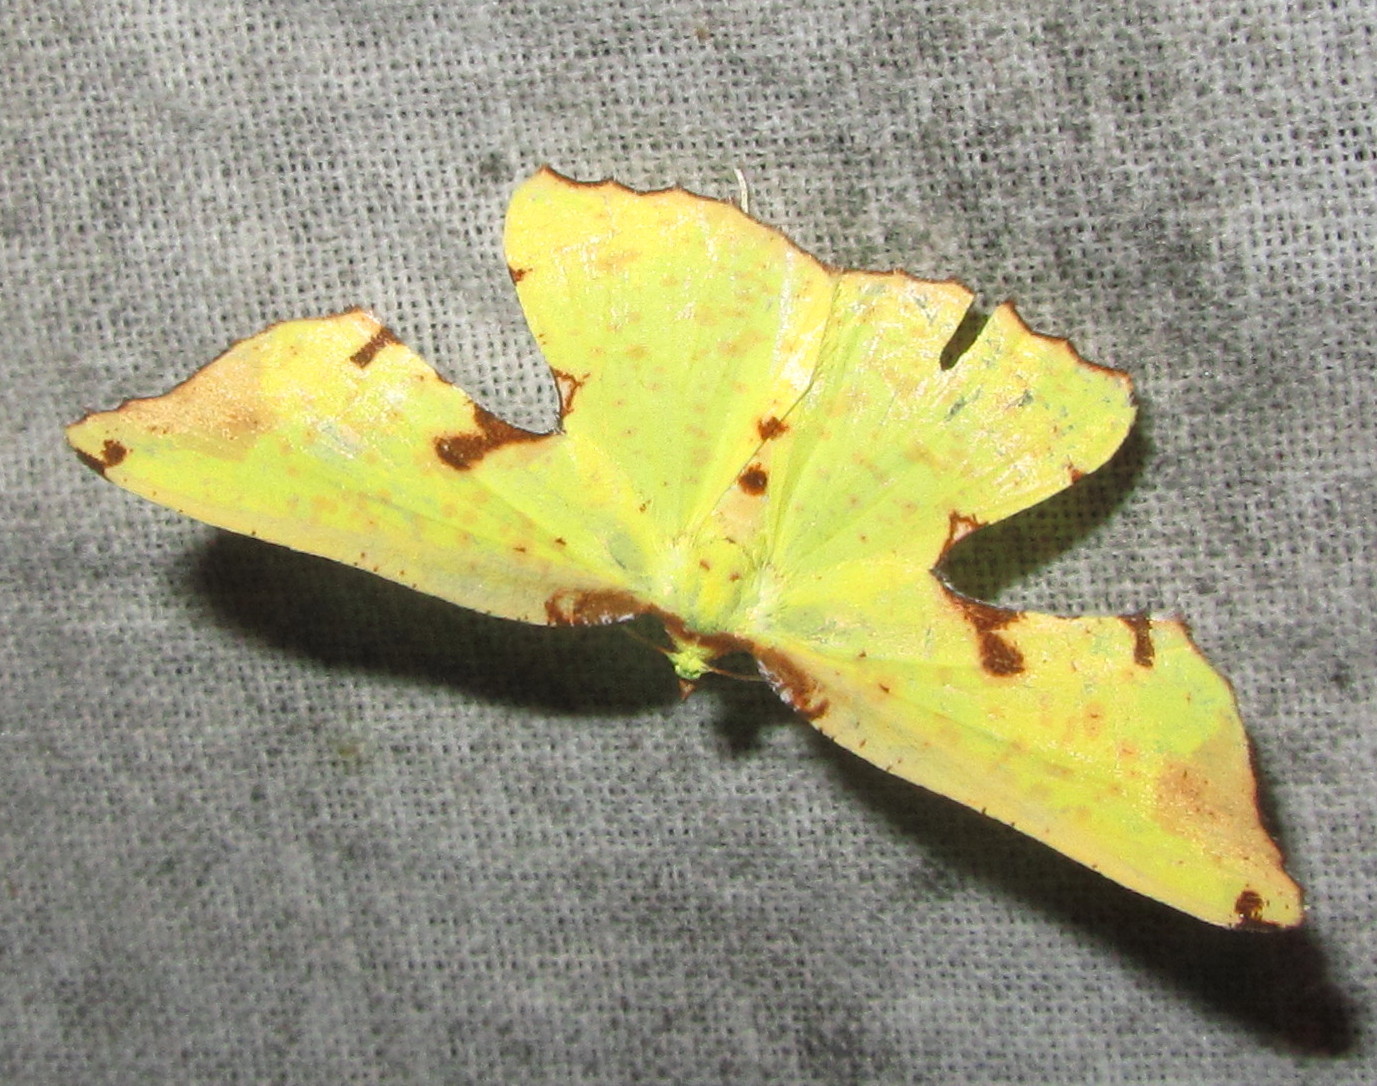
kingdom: Animalia
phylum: Arthropoda
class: Insecta
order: Lepidoptera
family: Geometridae
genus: Corymica
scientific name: Corymica pryeri
